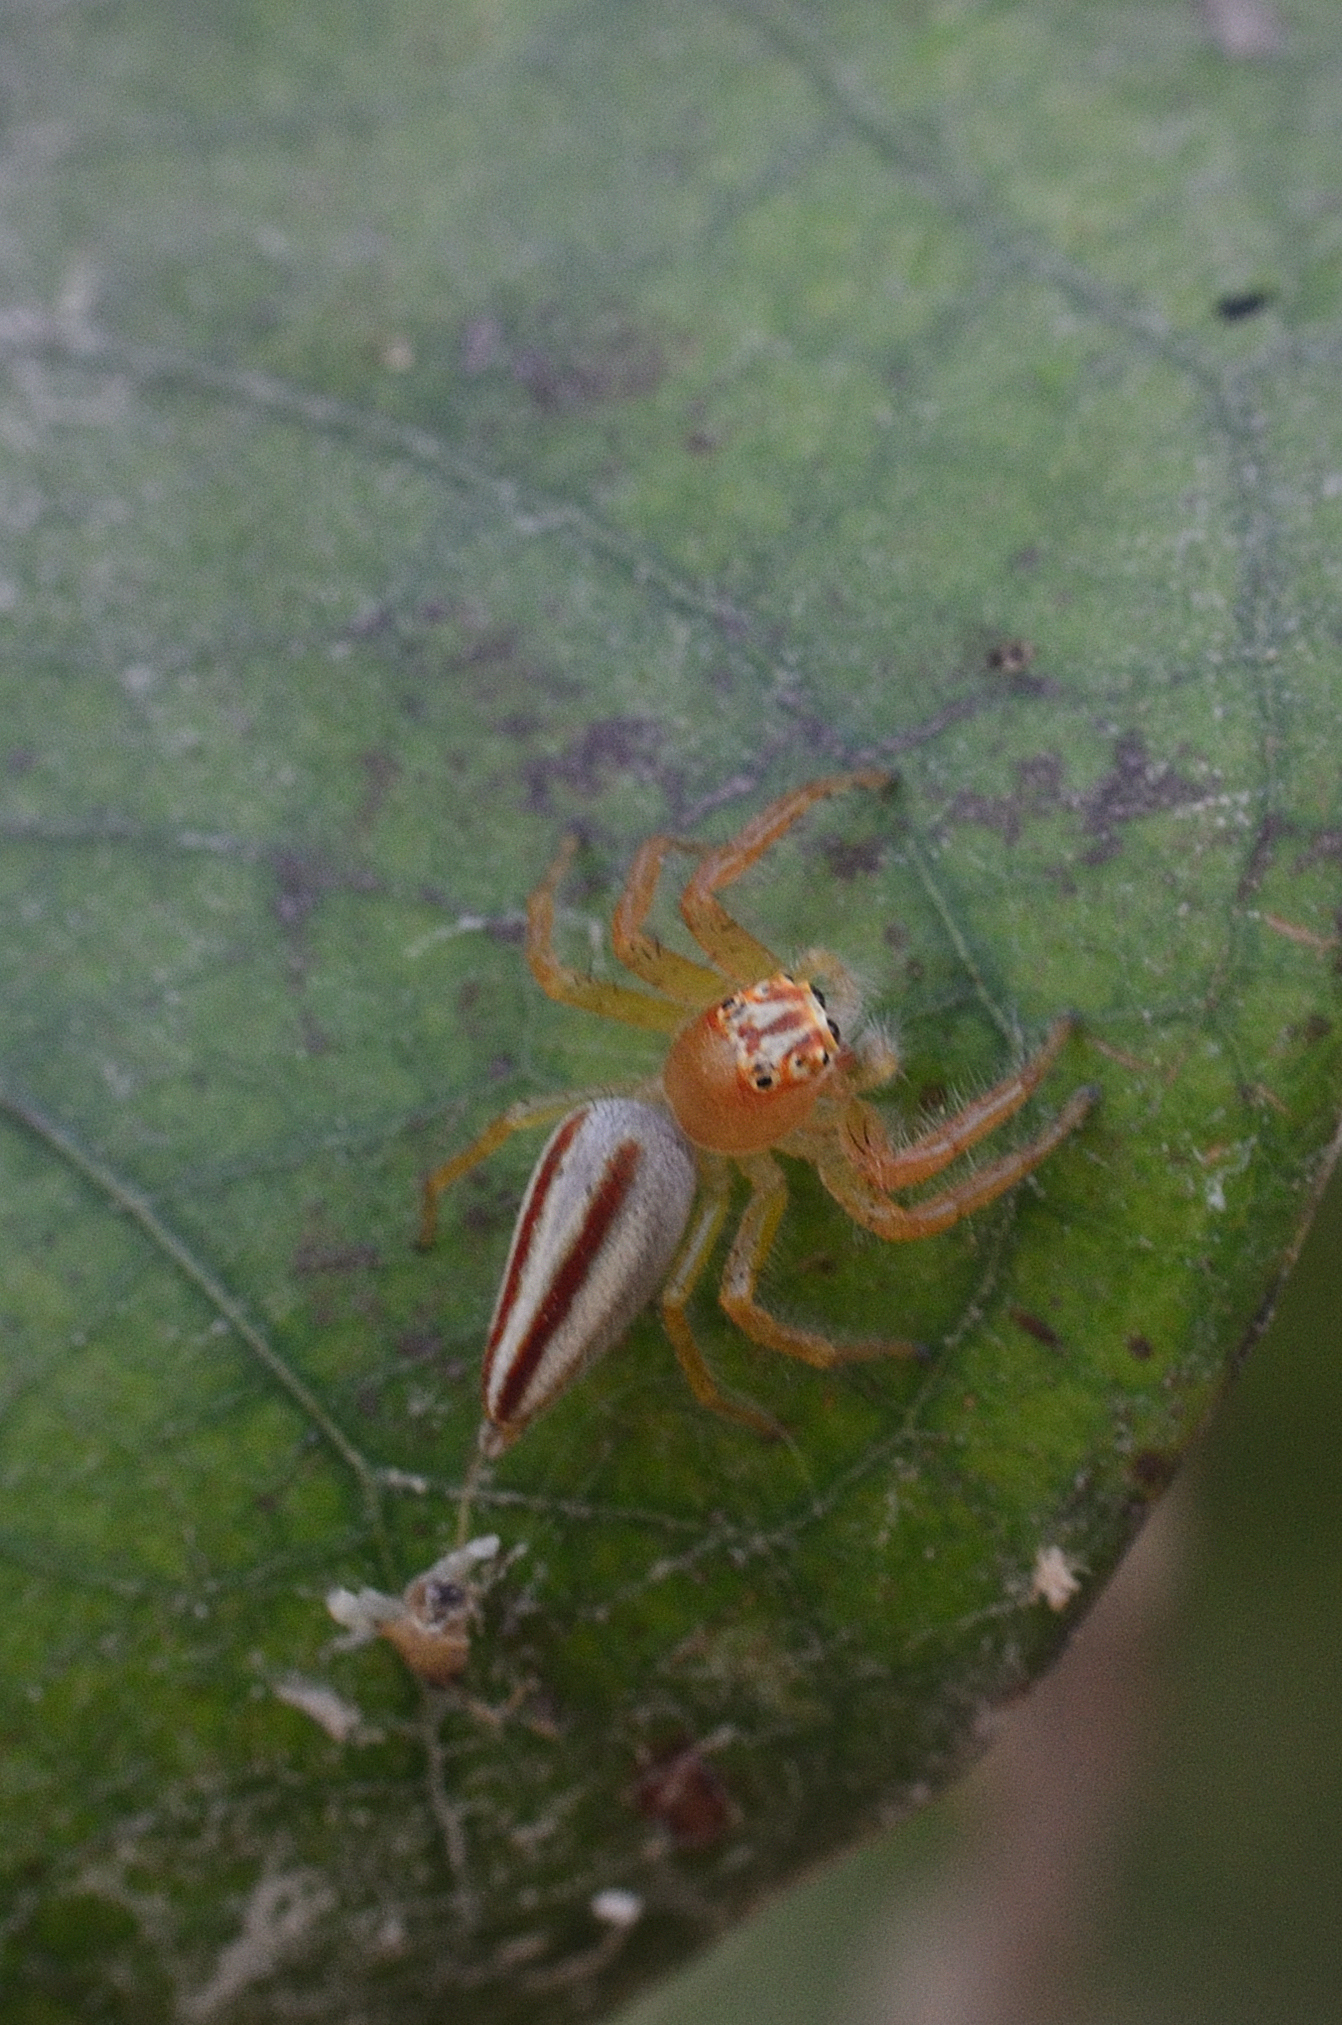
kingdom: Animalia
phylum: Arthropoda
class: Arachnida
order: Araneae
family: Salticidae
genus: Telamonia
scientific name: Telamonia dimidiata
